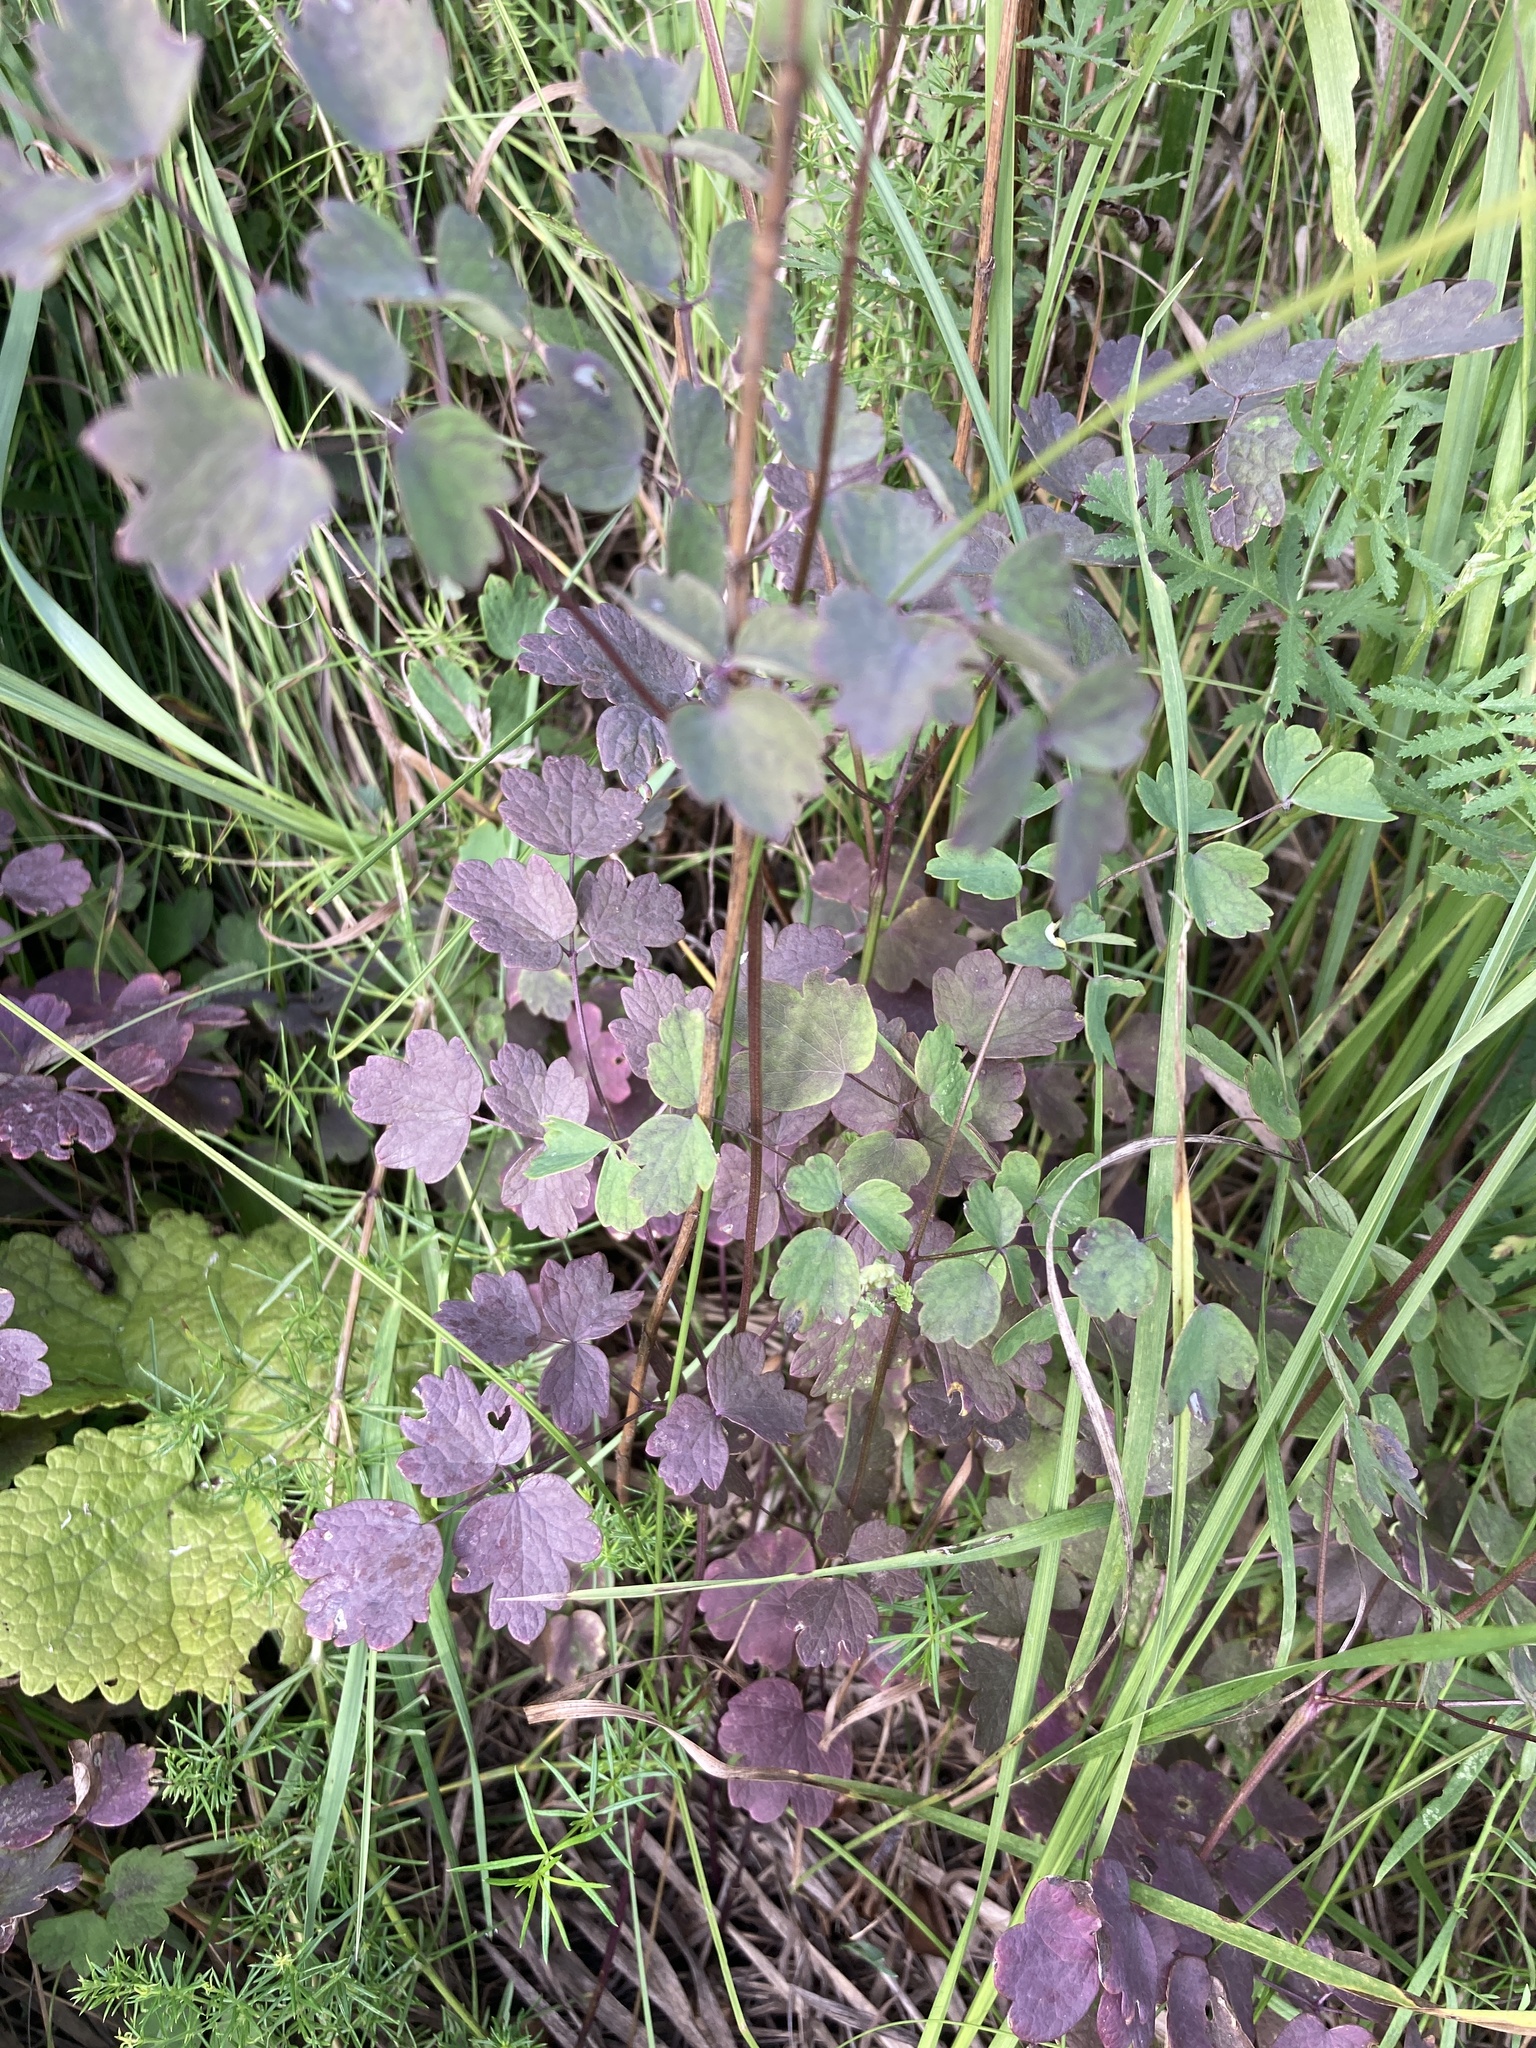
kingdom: Plantae
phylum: Tracheophyta
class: Magnoliopsida
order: Ranunculales
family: Ranunculaceae
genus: Thalictrum
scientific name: Thalictrum minus
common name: Lesser meadow-rue
